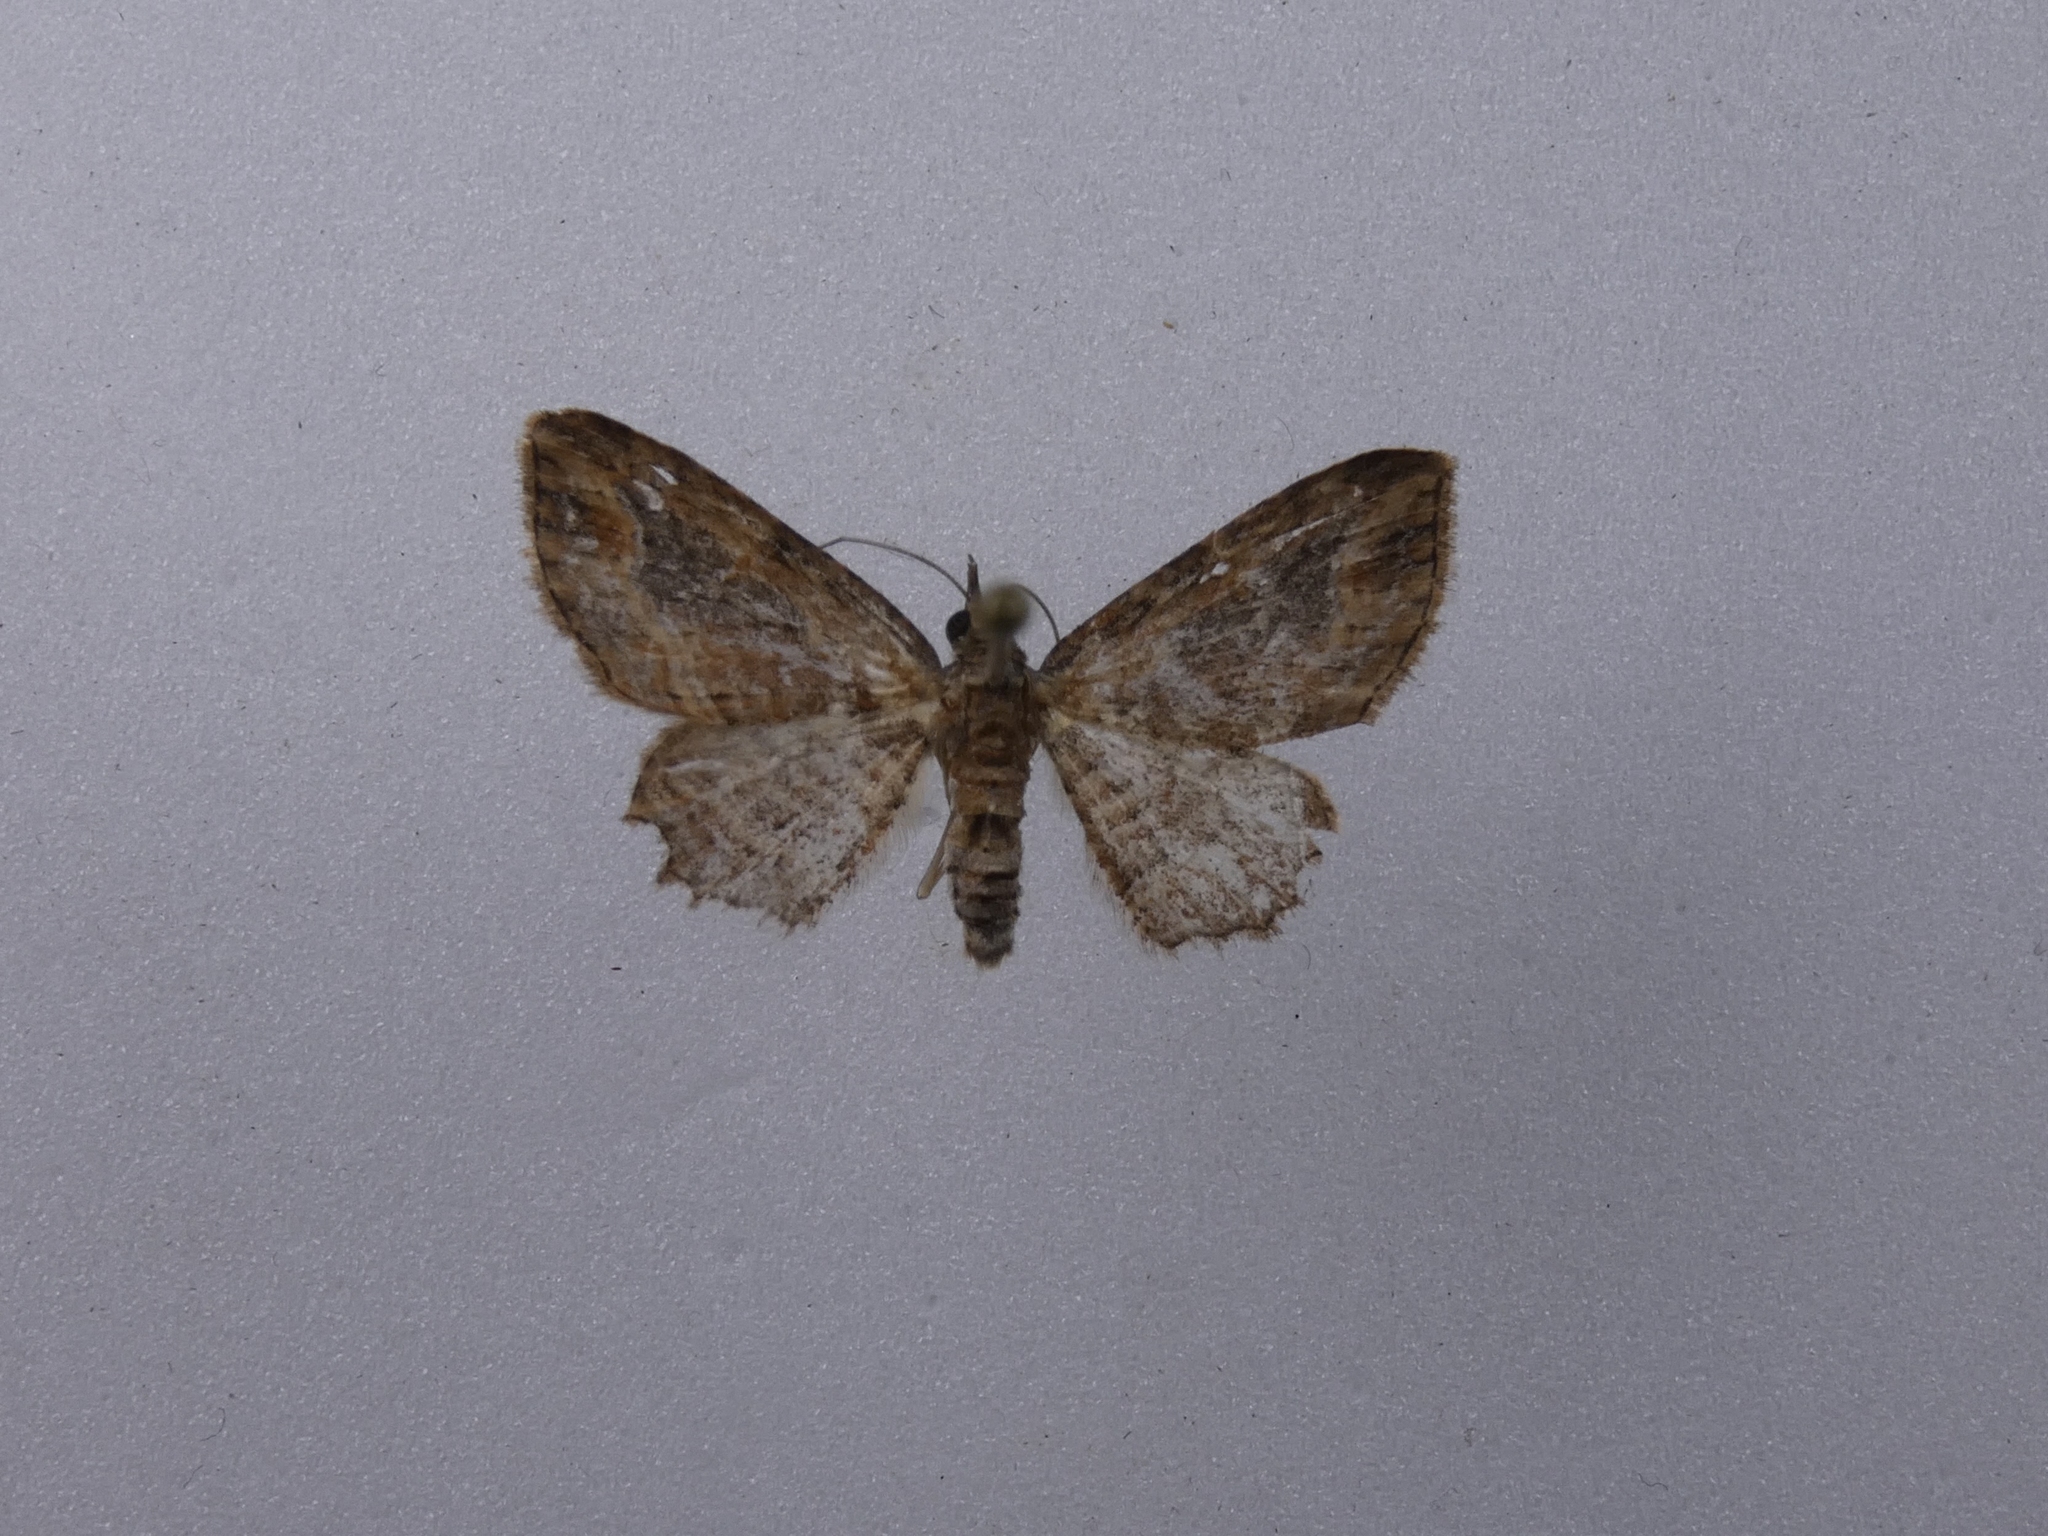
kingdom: Animalia
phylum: Arthropoda
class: Insecta
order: Lepidoptera
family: Geometridae
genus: Chloroclystis
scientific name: Chloroclystis filata
